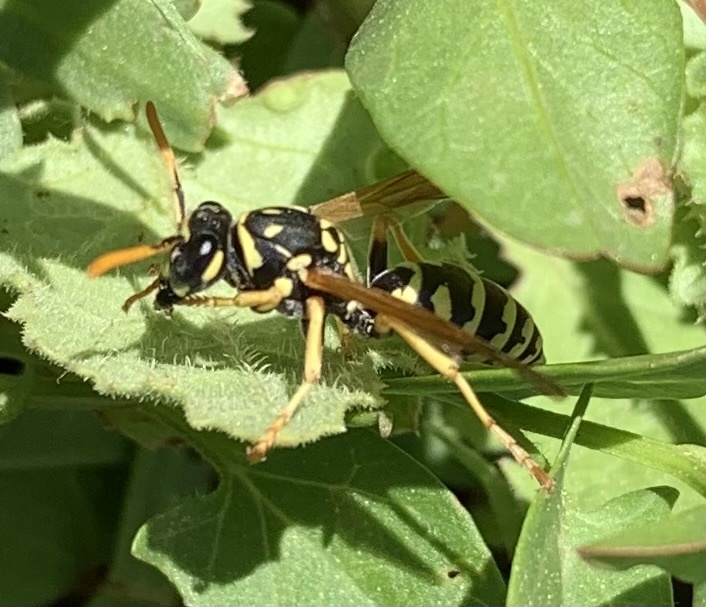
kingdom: Animalia
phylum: Arthropoda
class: Insecta
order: Hymenoptera
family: Eumenidae
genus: Polistes
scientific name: Polistes dominula
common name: Paper wasp
